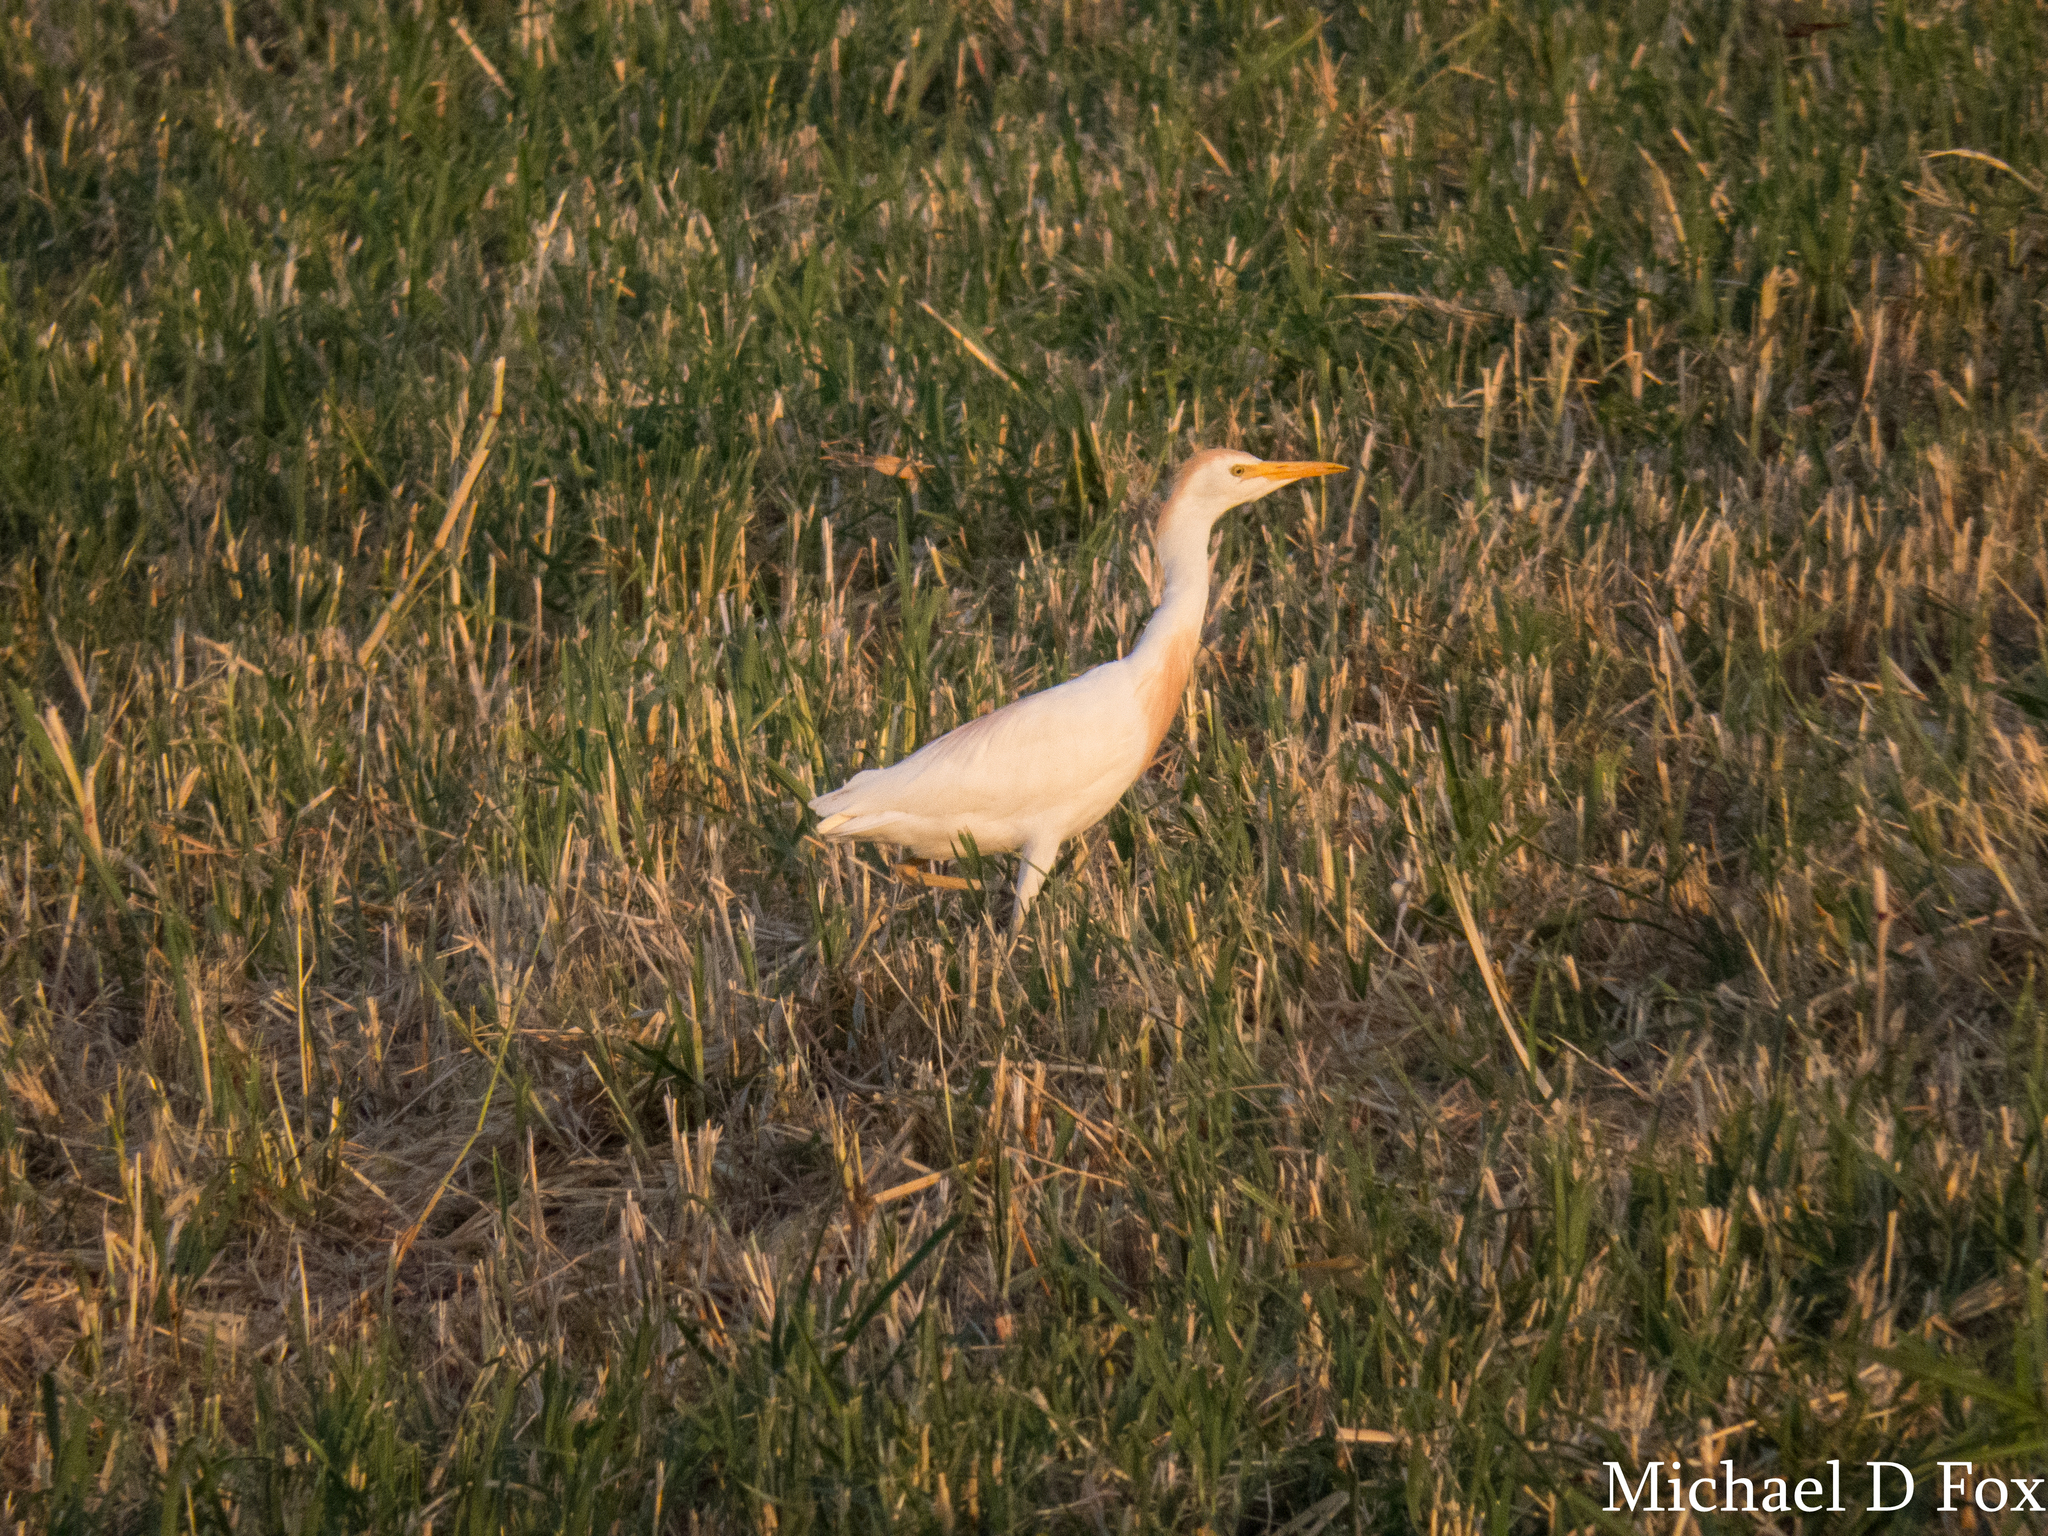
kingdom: Animalia
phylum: Chordata
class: Aves
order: Pelecaniformes
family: Ardeidae
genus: Bubulcus
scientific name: Bubulcus ibis
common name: Cattle egret
